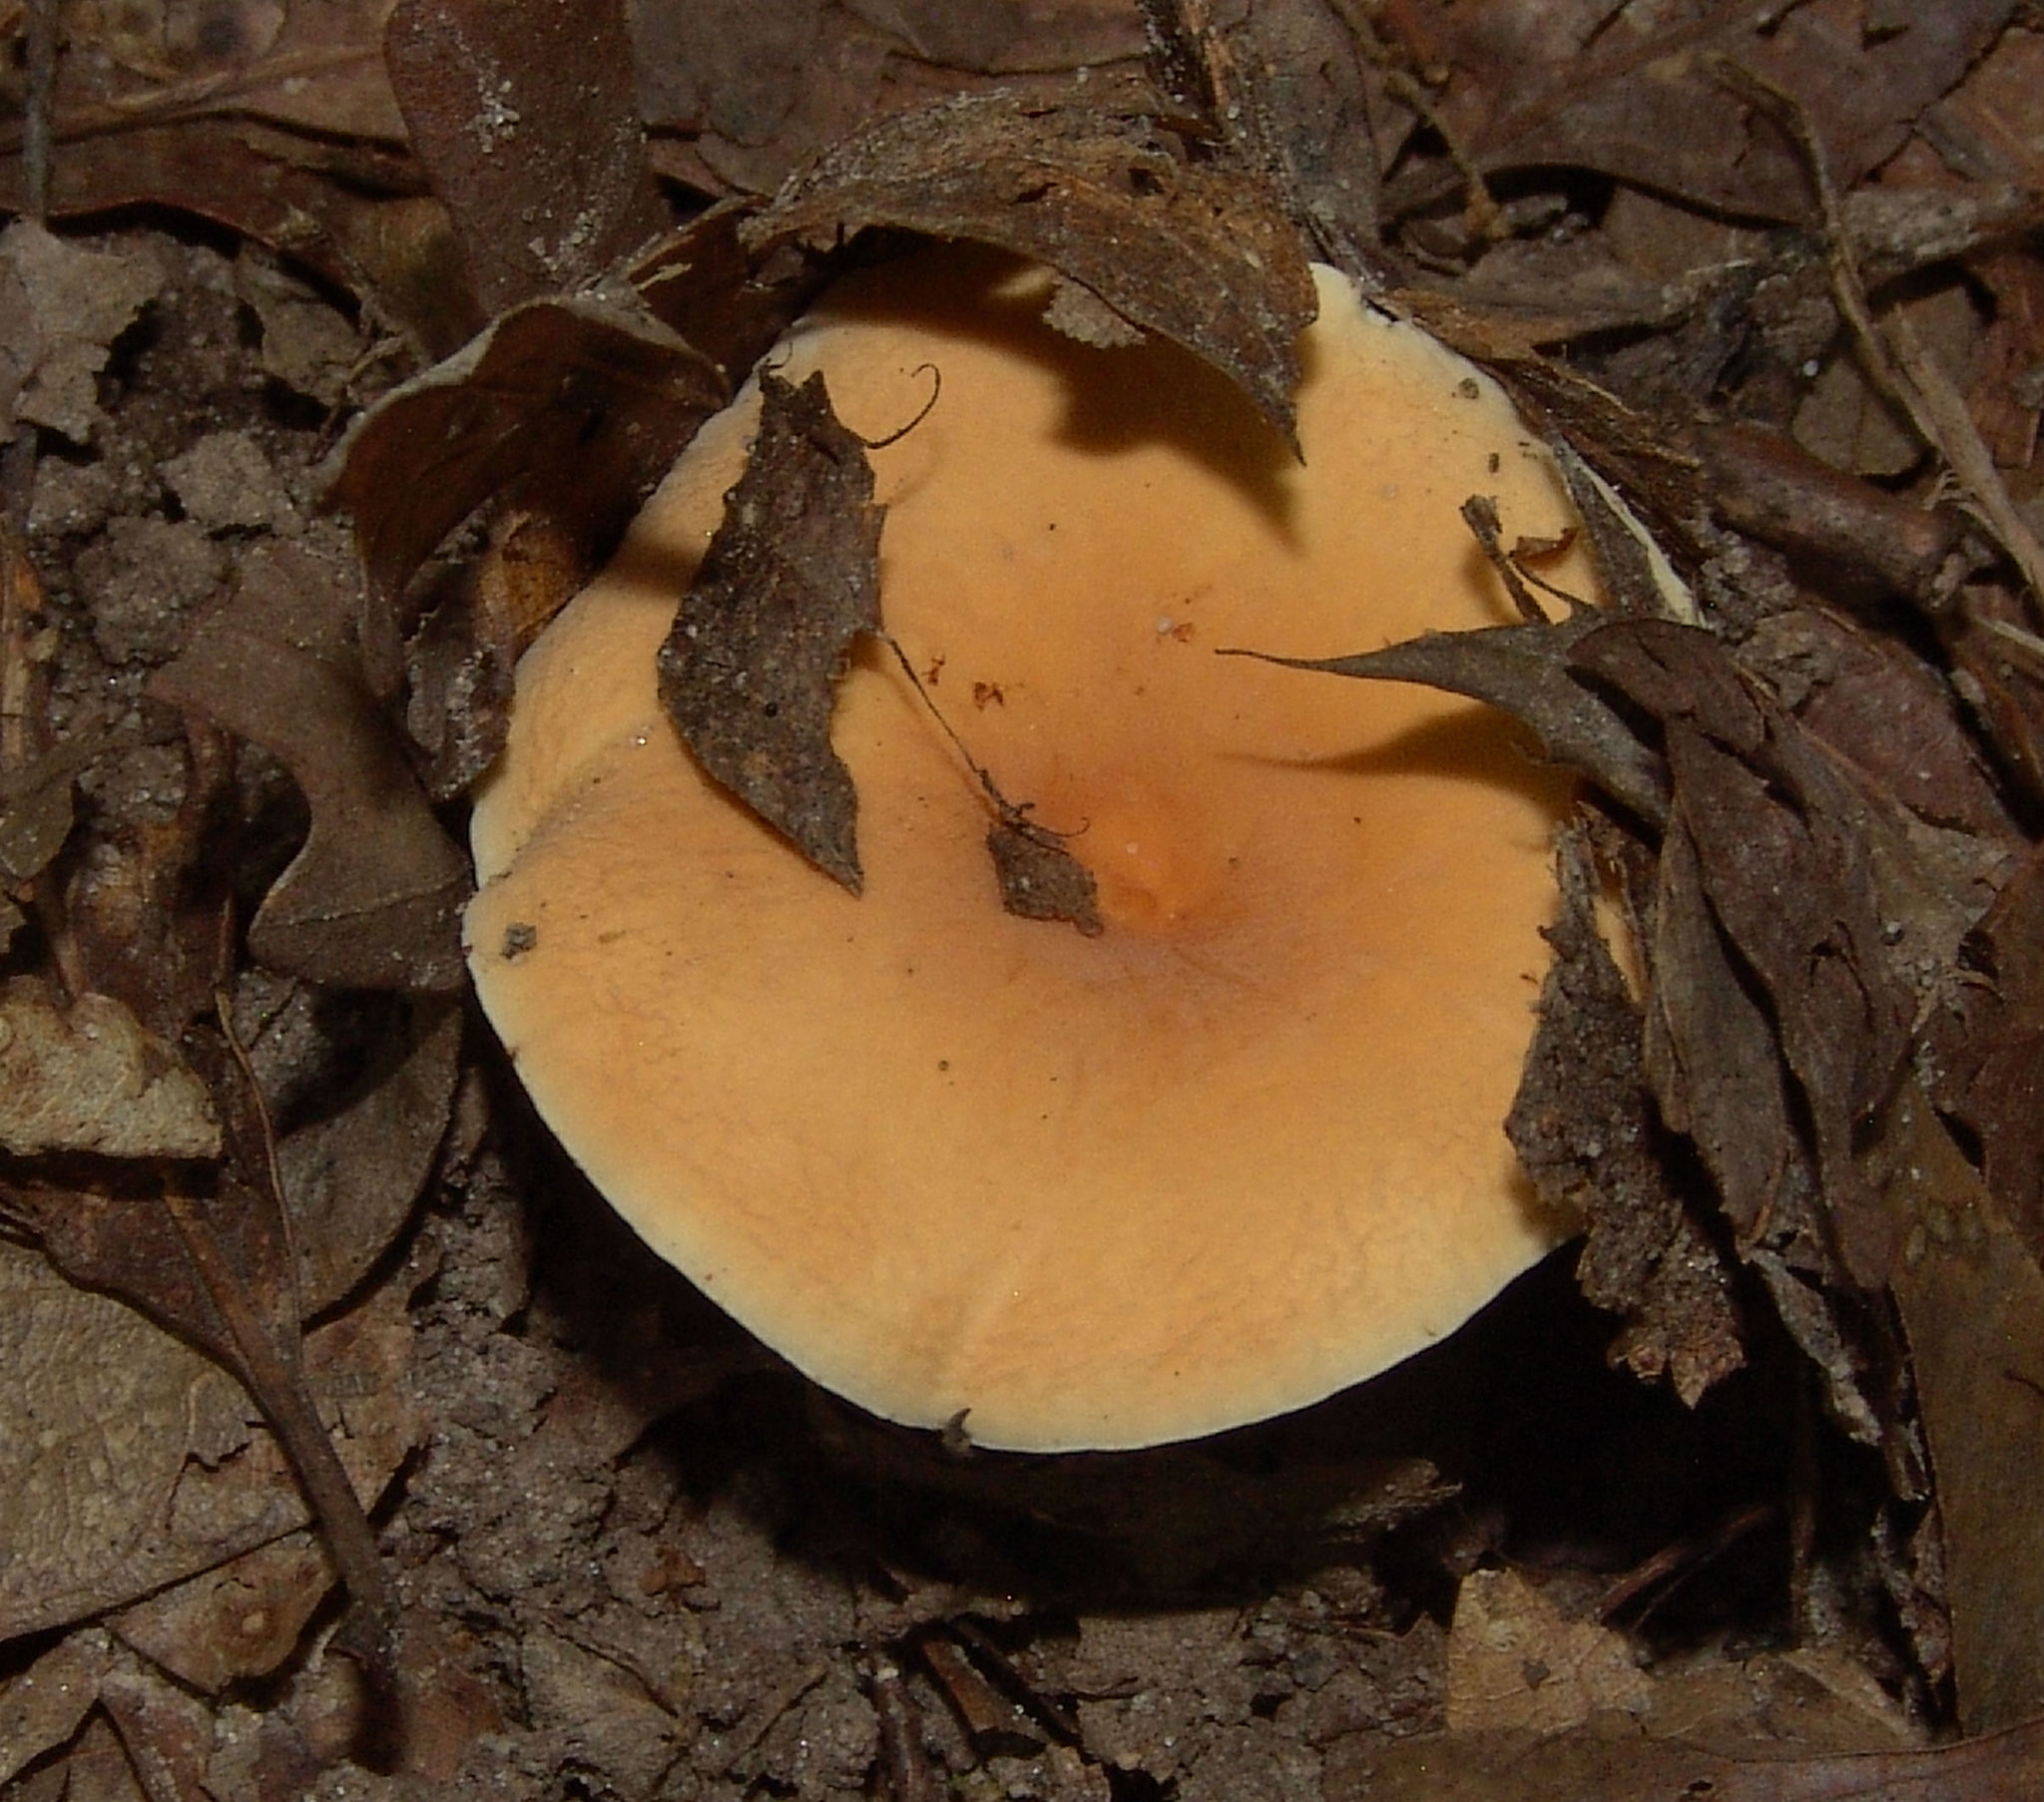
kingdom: Fungi
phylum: Basidiomycota
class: Agaricomycetes
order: Russulales
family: Russulaceae
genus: Lactarius
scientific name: Lactarius hygrophoroides
